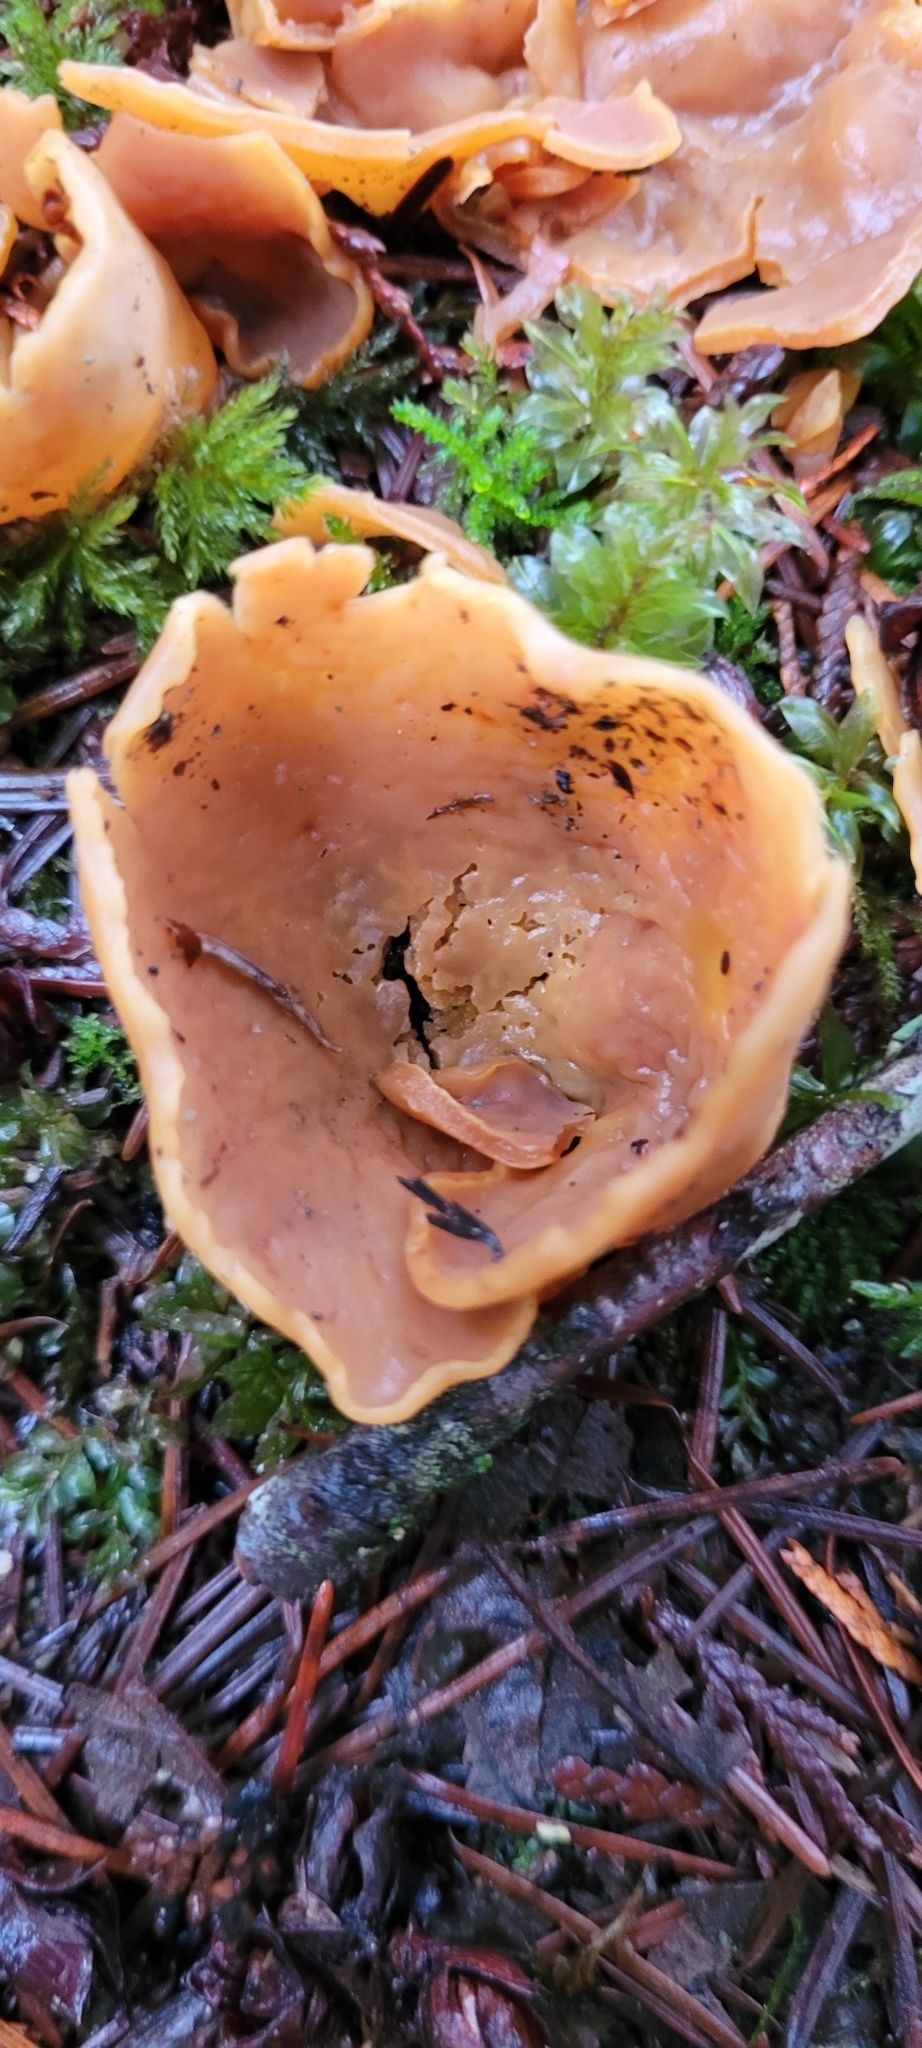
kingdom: Fungi
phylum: Ascomycota
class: Pezizomycetes
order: Pezizales
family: Otideaceae
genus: Otidea
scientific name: Otidea onotica
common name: Hare's ear
